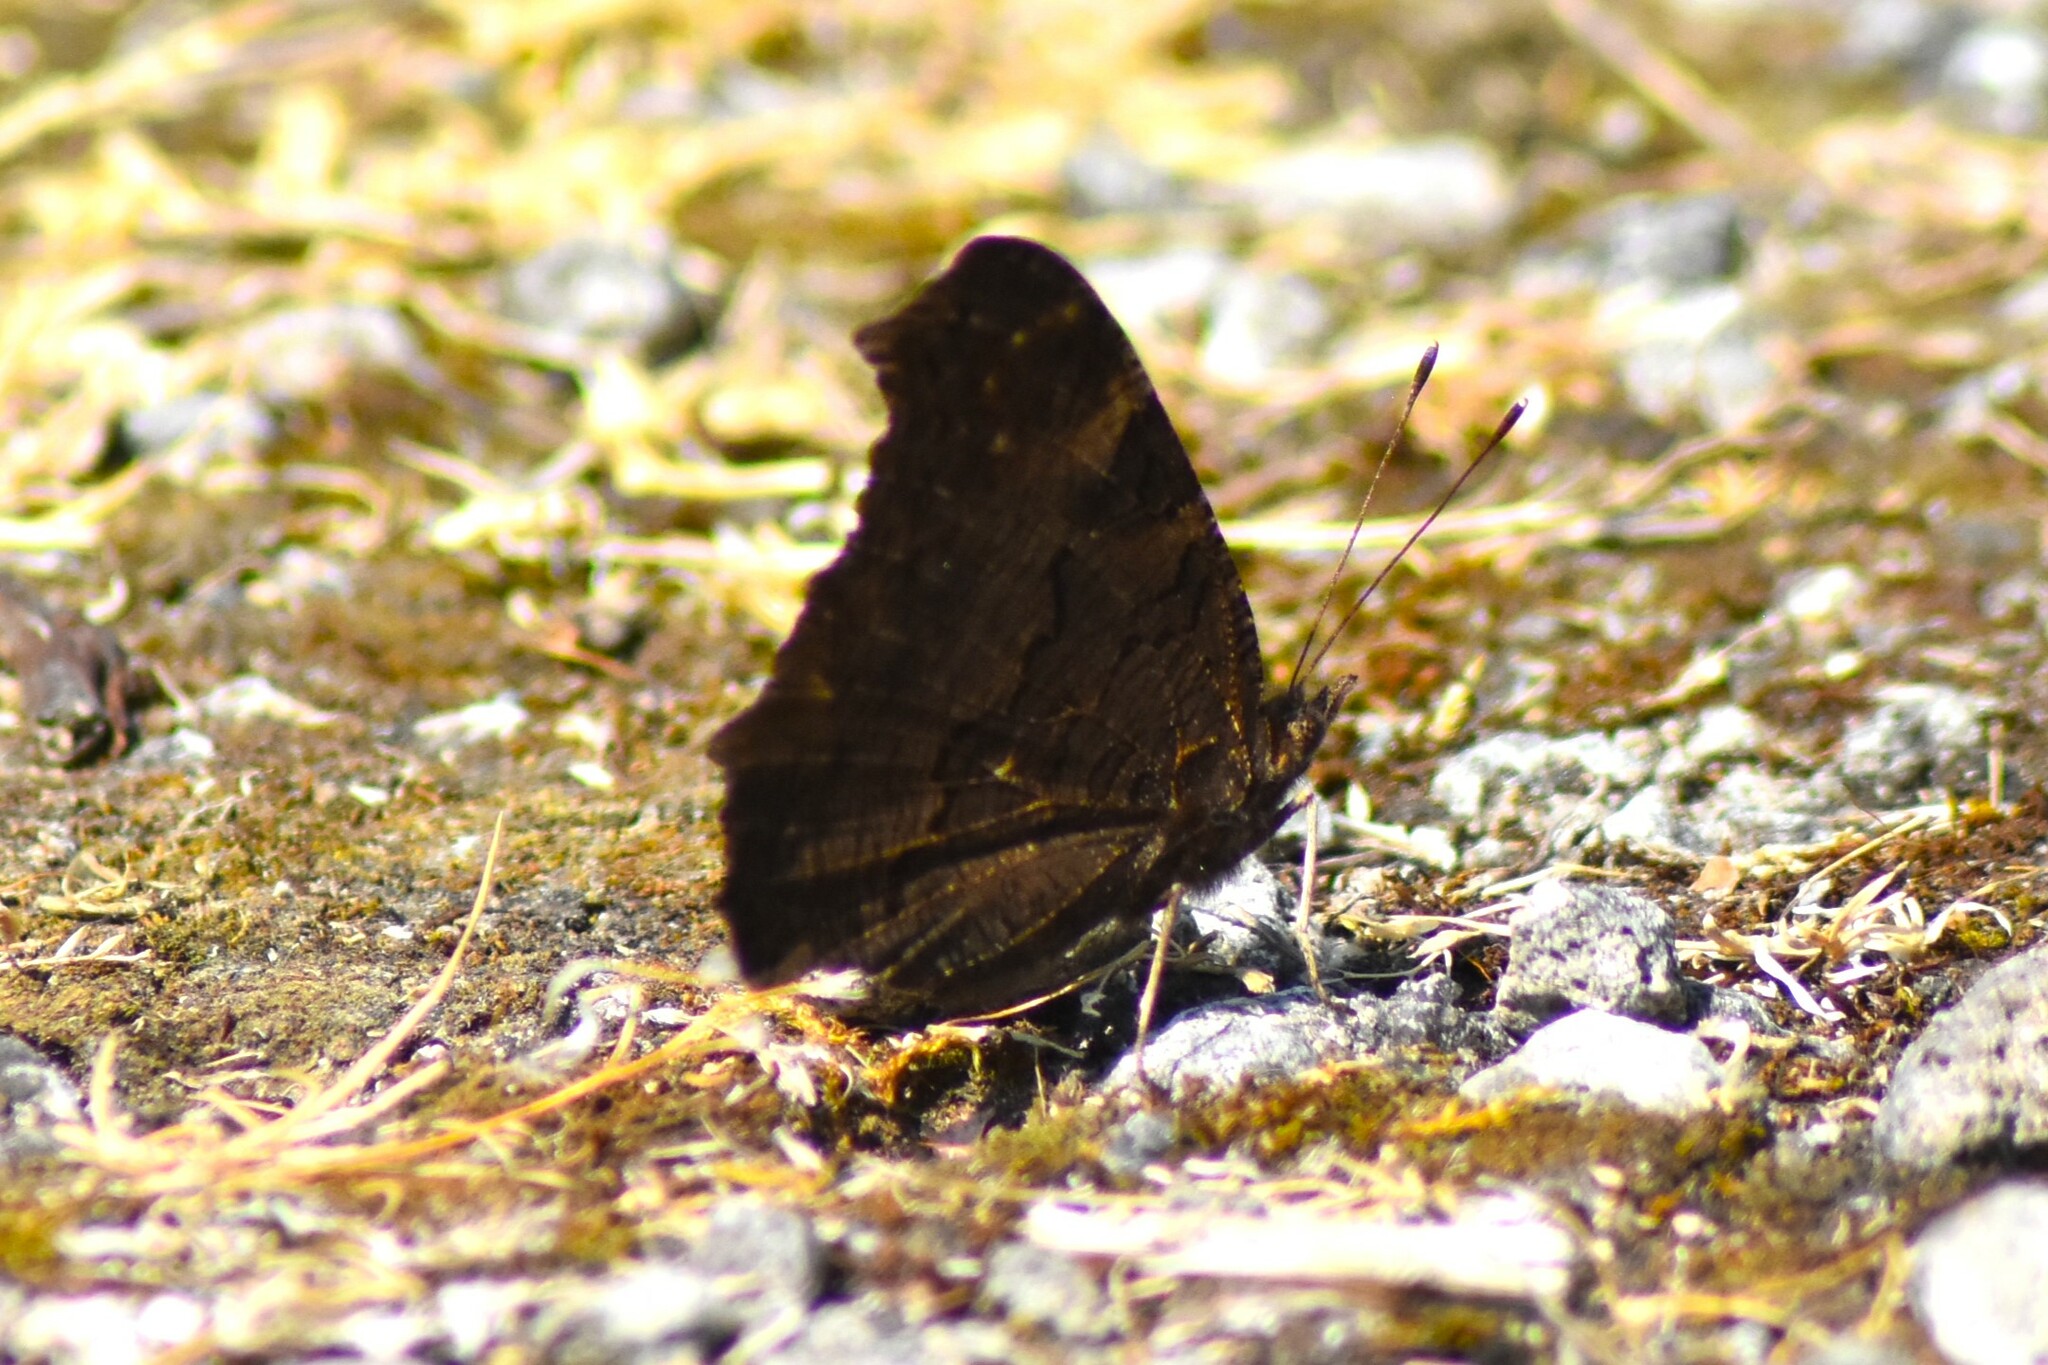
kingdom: Animalia
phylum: Arthropoda
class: Insecta
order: Lepidoptera
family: Nymphalidae
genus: Aglais
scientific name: Aglais io
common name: Peacock
